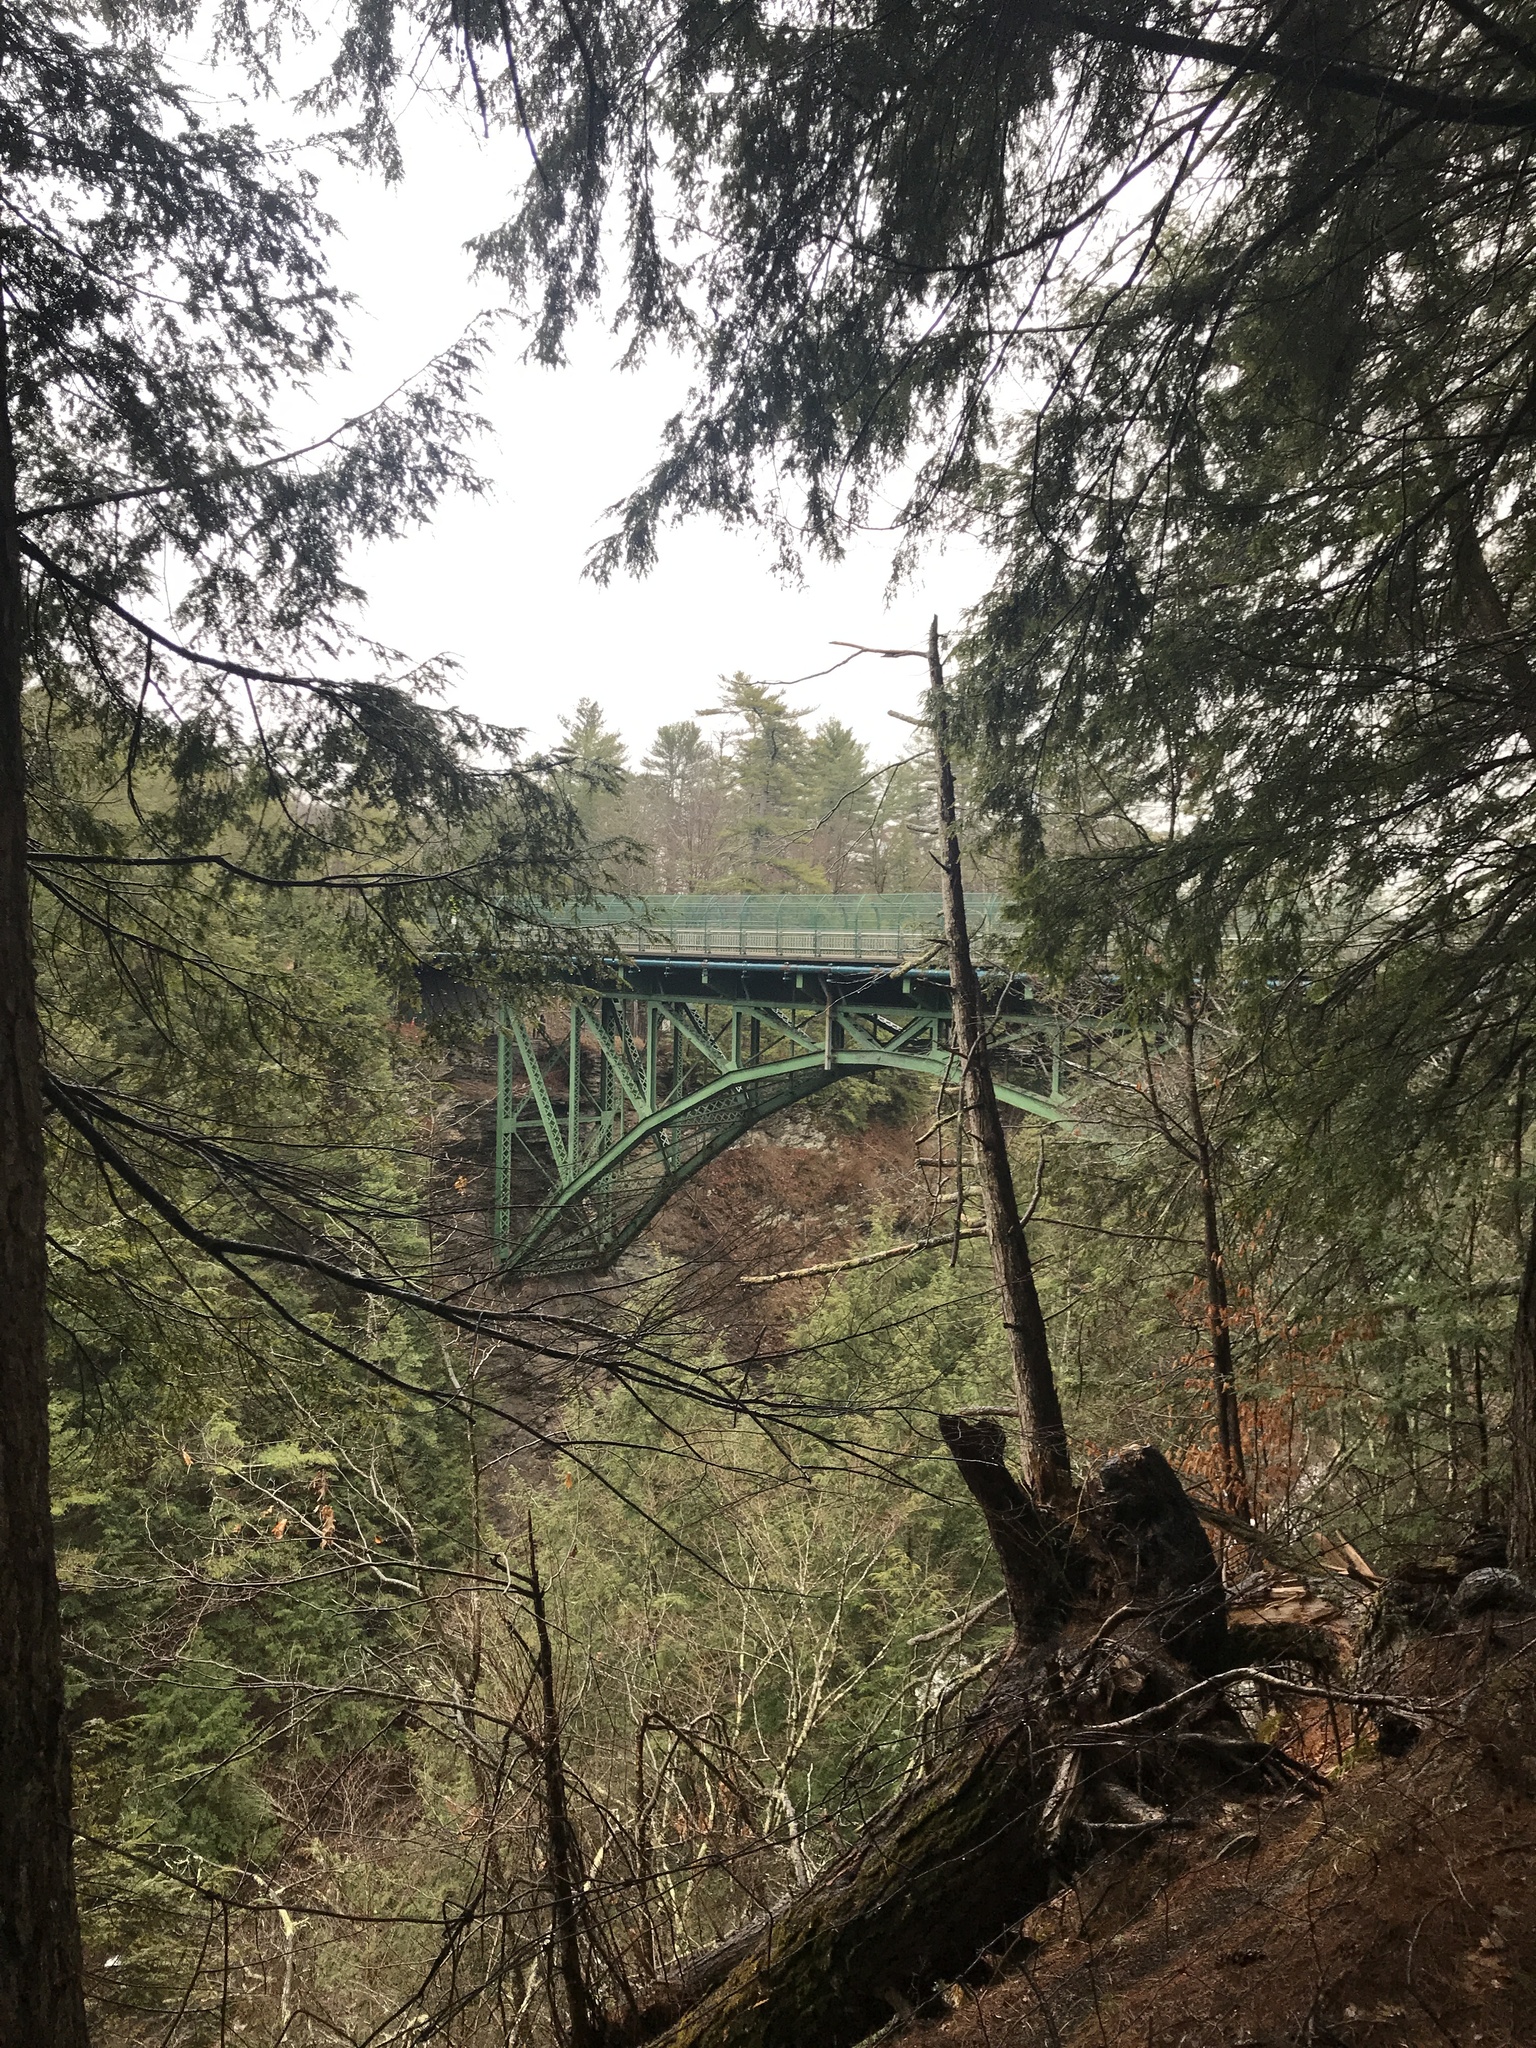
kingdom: Plantae
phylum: Tracheophyta
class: Pinopsida
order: Pinales
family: Pinaceae
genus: Tsuga
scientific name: Tsuga canadensis
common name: Eastern hemlock
